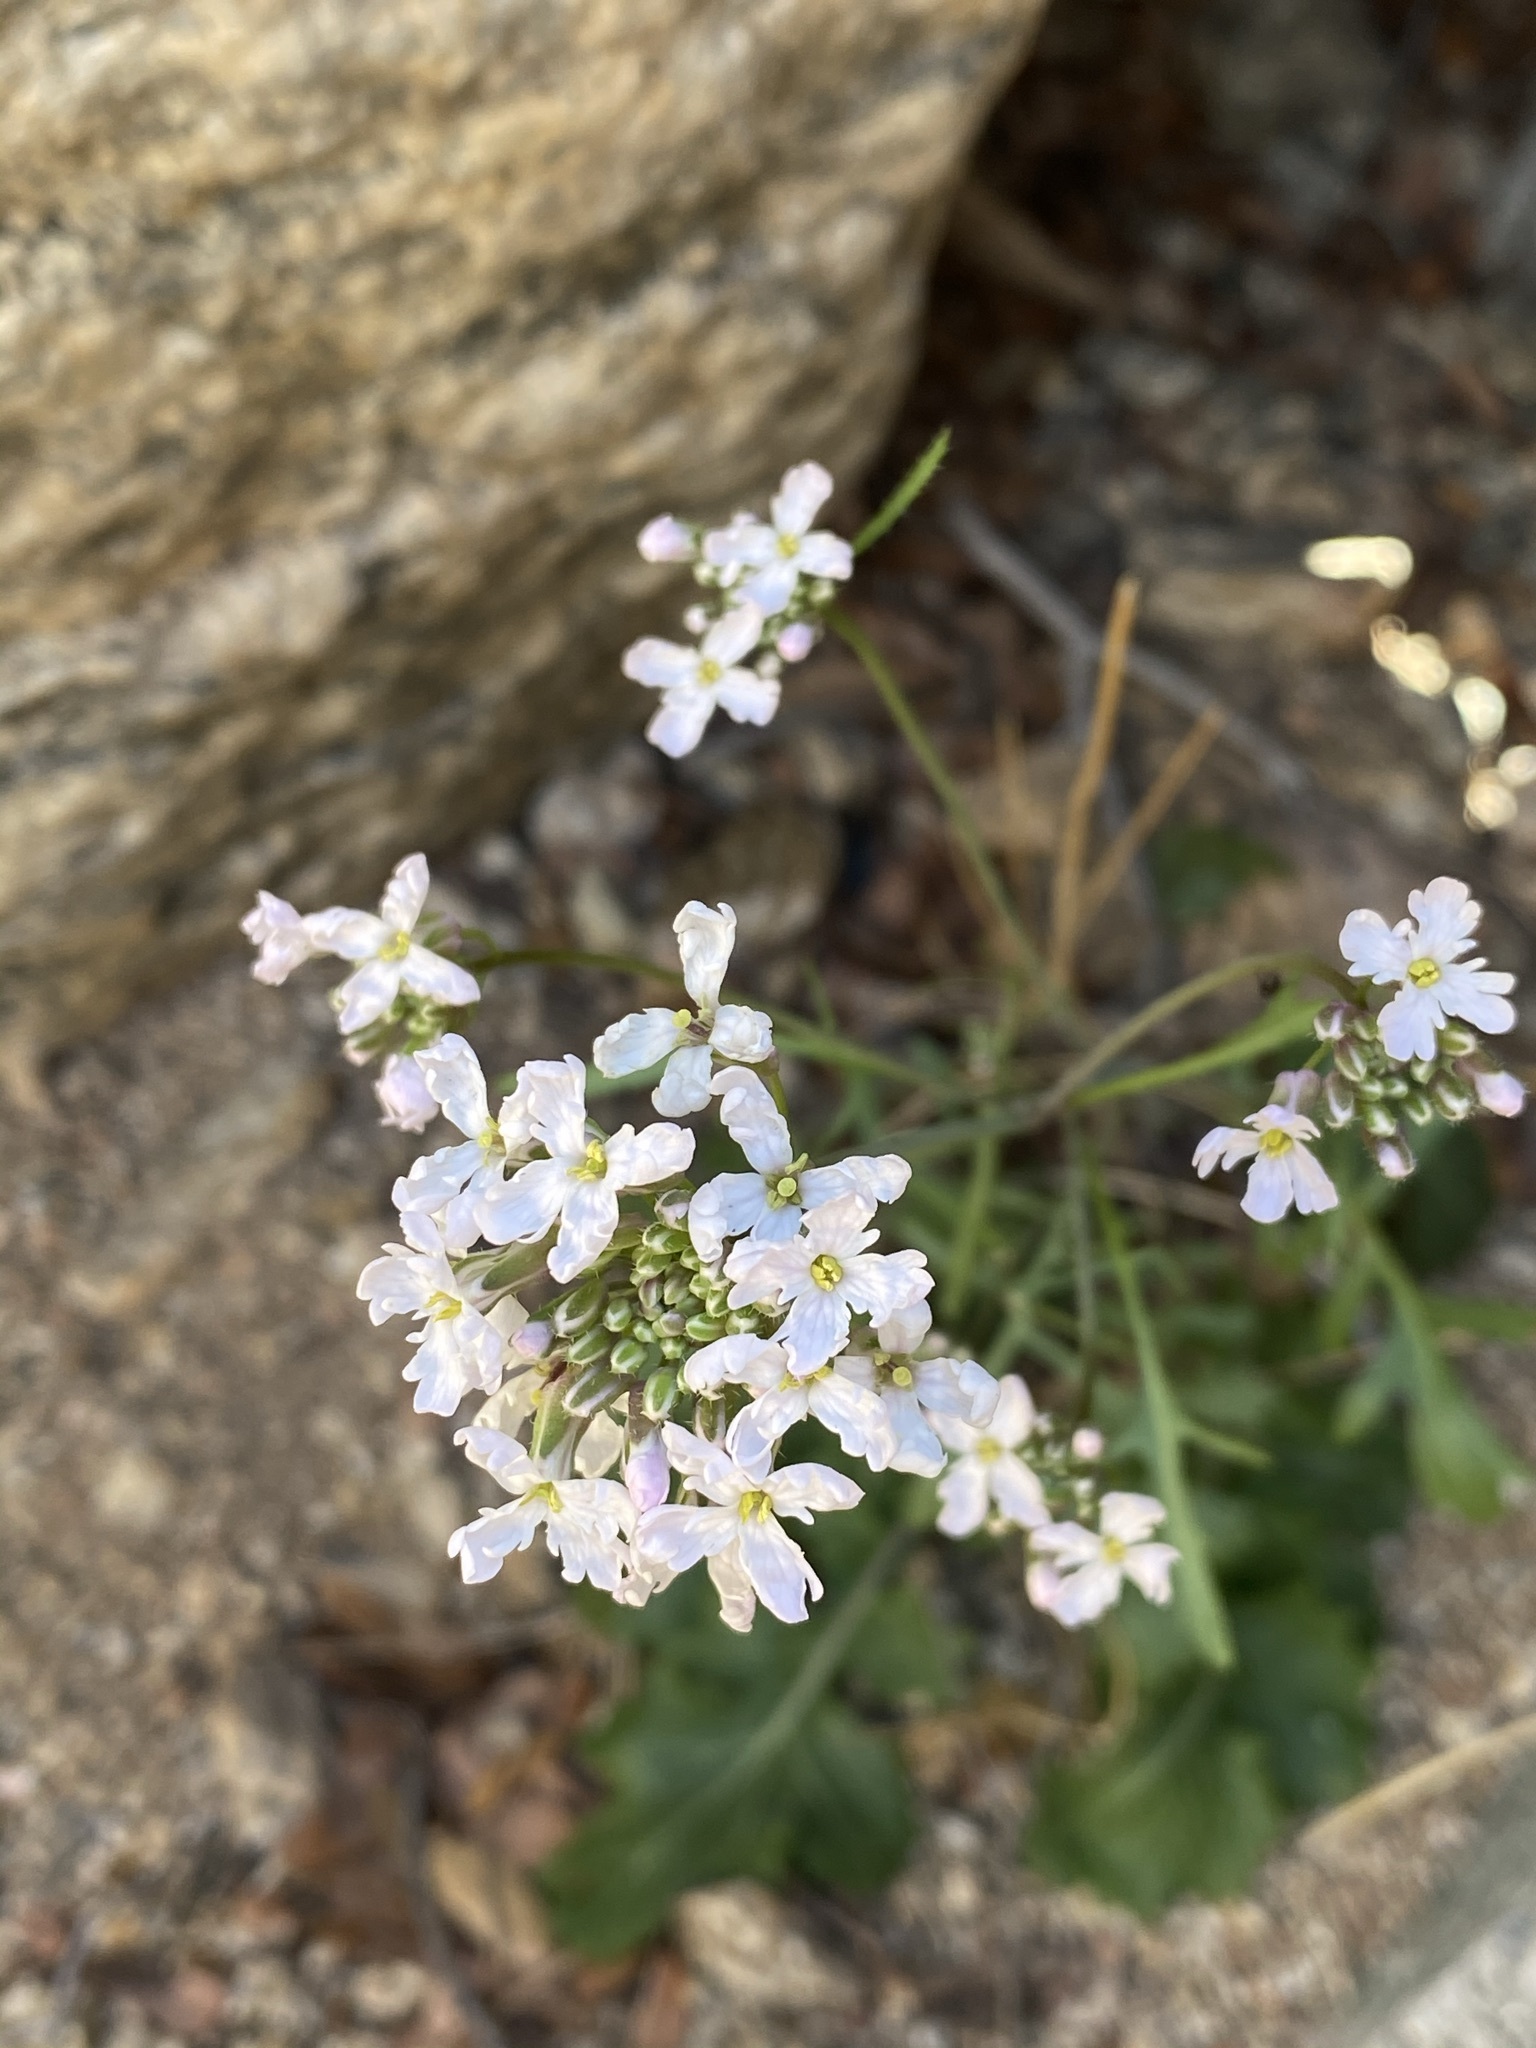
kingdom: Plantae
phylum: Tracheophyta
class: Magnoliopsida
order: Brassicales
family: Brassicaceae
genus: Dryopetalon
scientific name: Dryopetalon runcinatum
